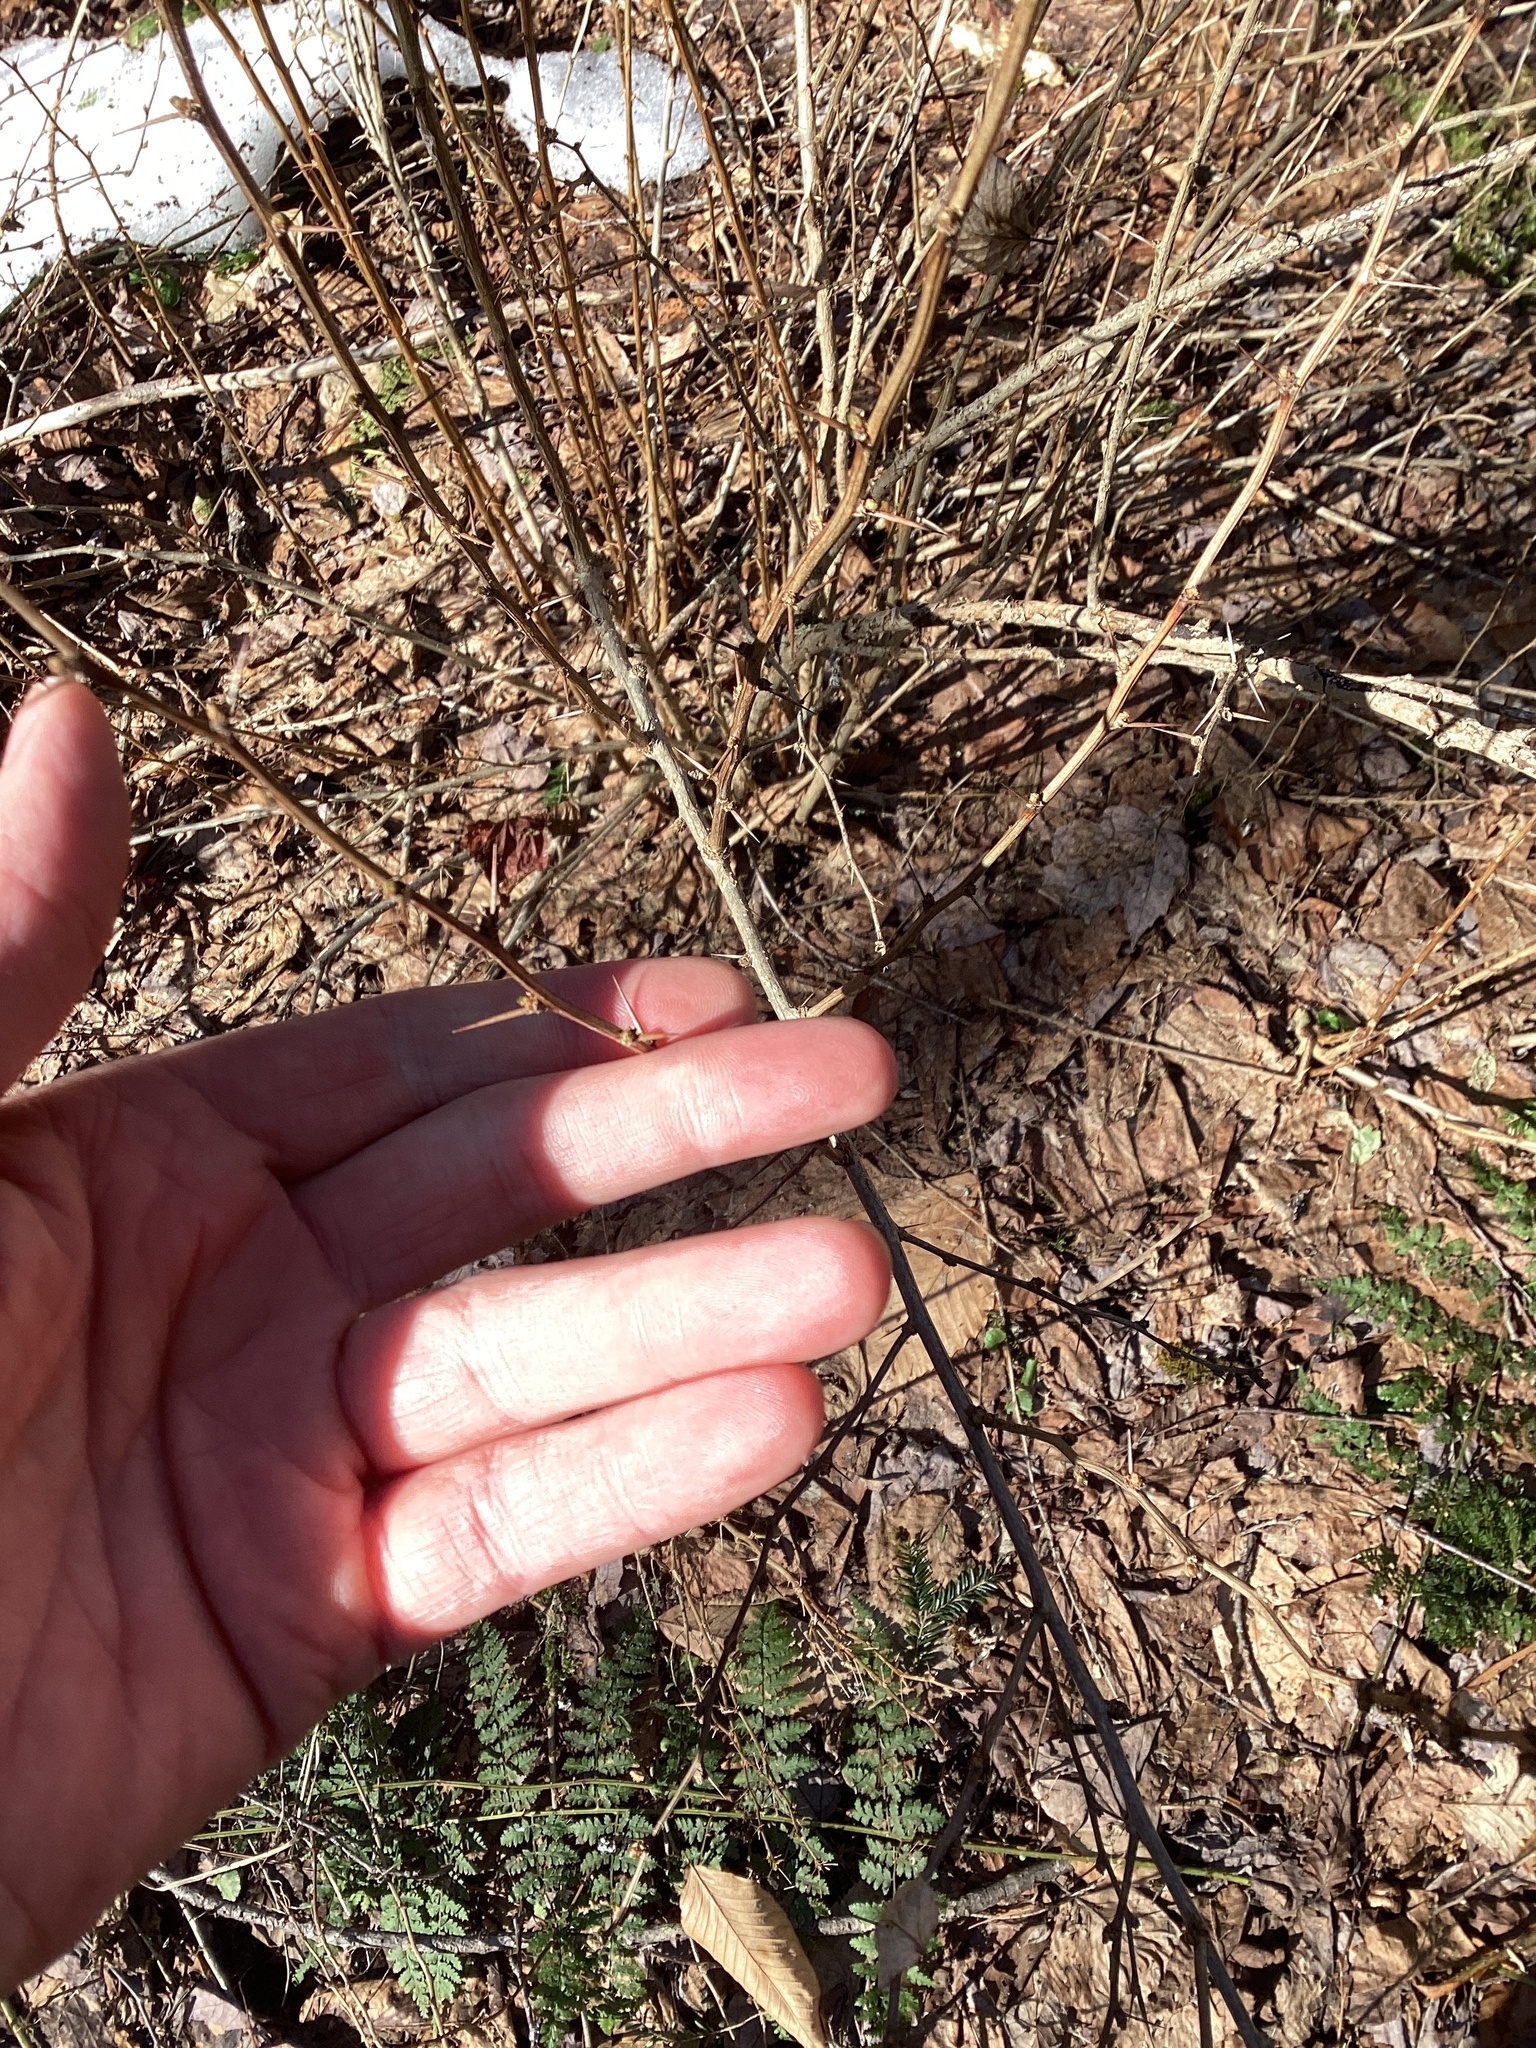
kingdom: Plantae
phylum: Tracheophyta
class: Magnoliopsida
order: Ranunculales
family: Berberidaceae
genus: Berberis
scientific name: Berberis thunbergii
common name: Japanese barberry
